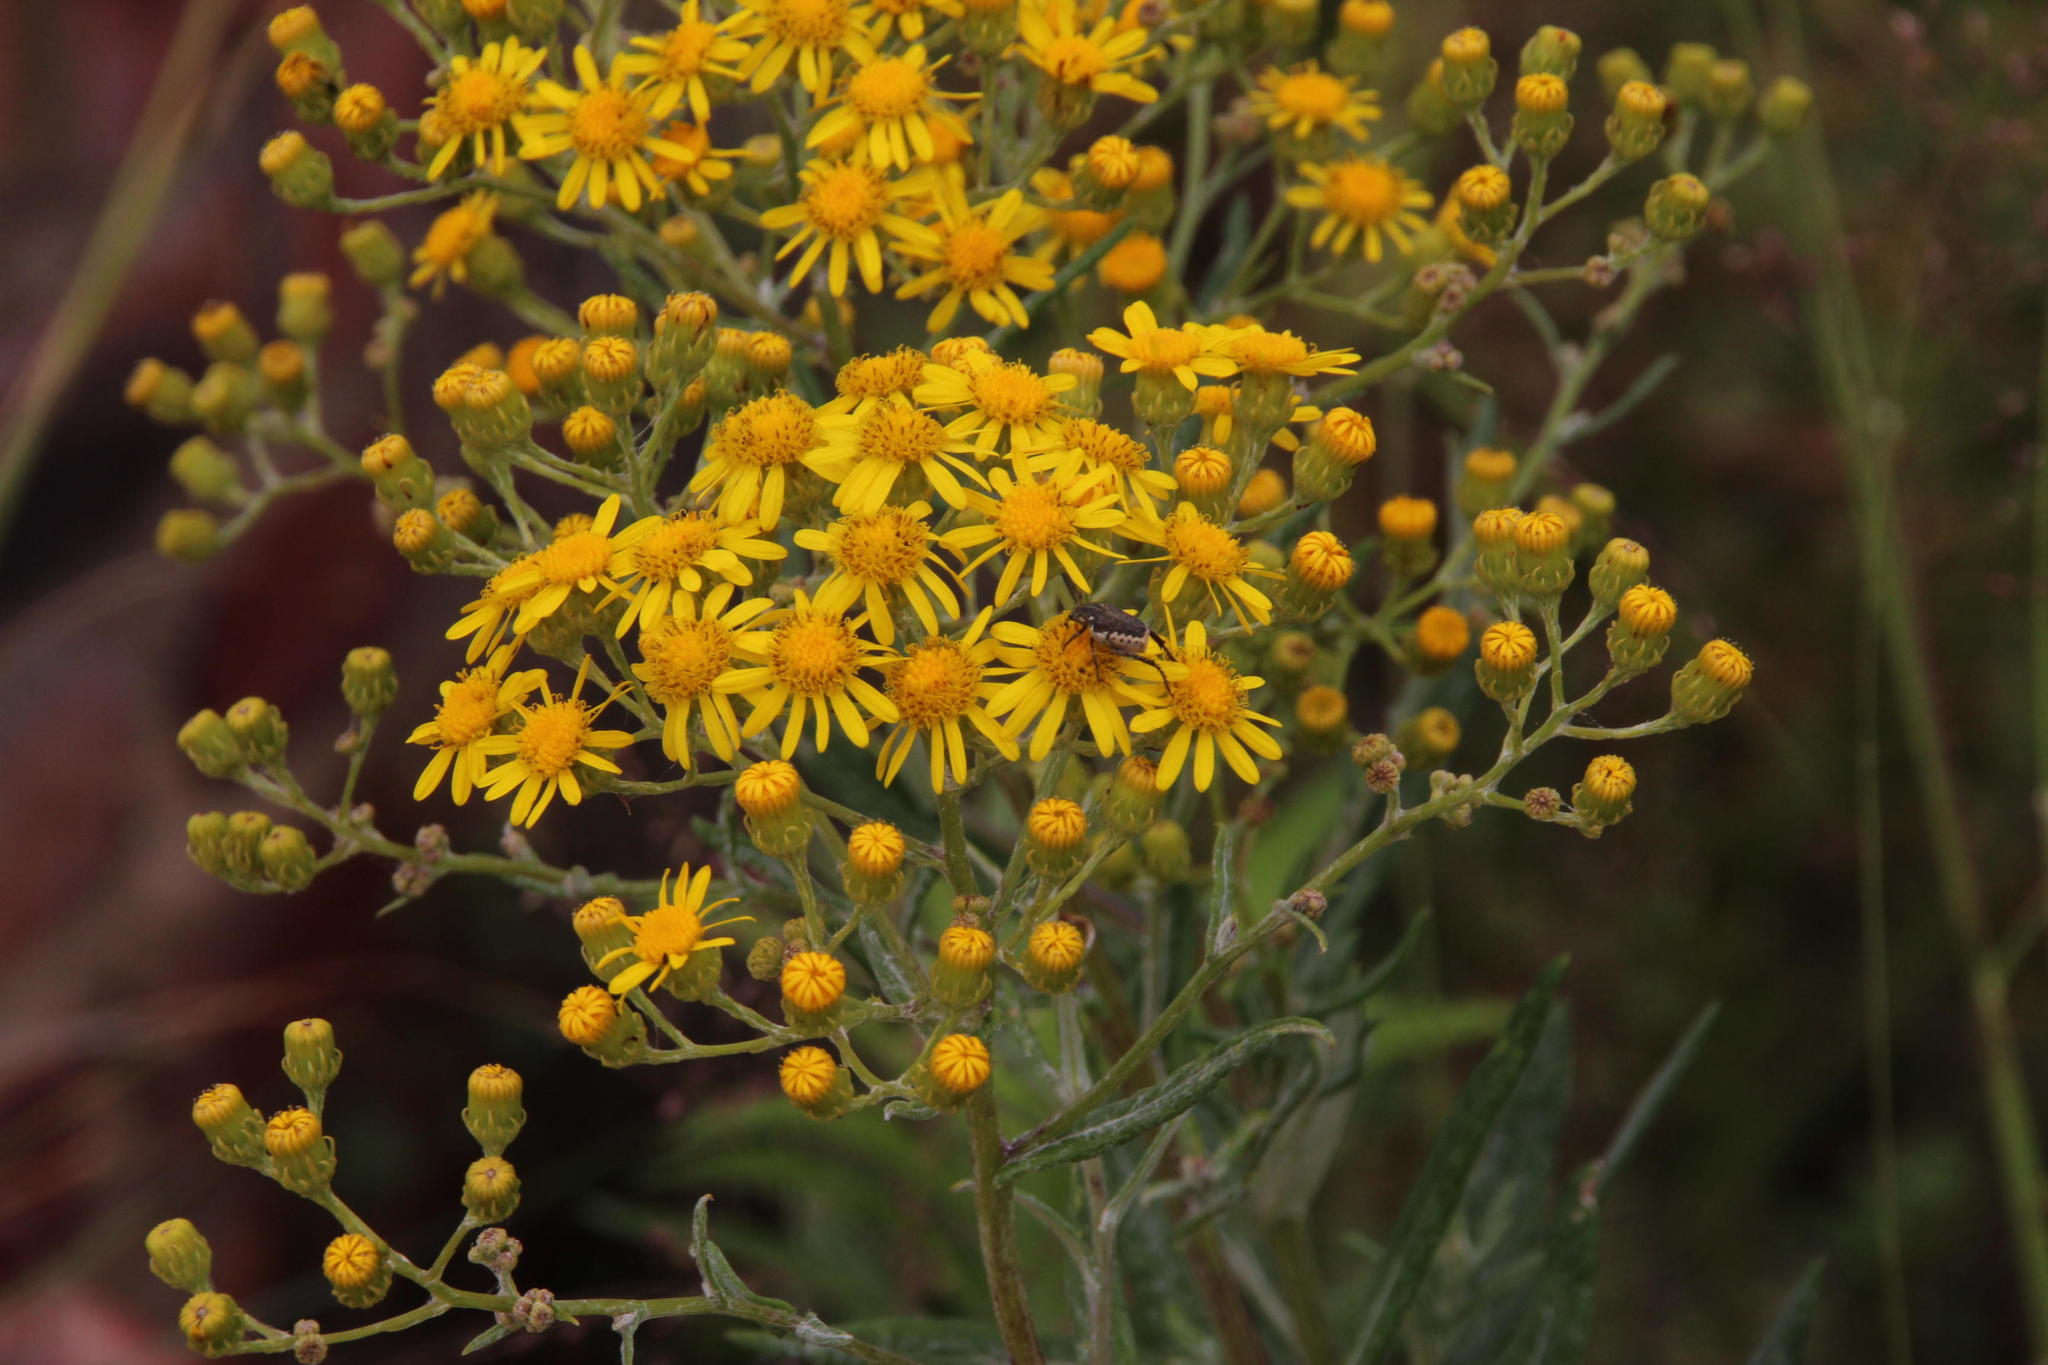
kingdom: Plantae
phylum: Tracheophyta
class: Magnoliopsida
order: Asterales
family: Asteraceae
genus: Senecio
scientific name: Senecio pterophorus
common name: Shoddy ragwort
